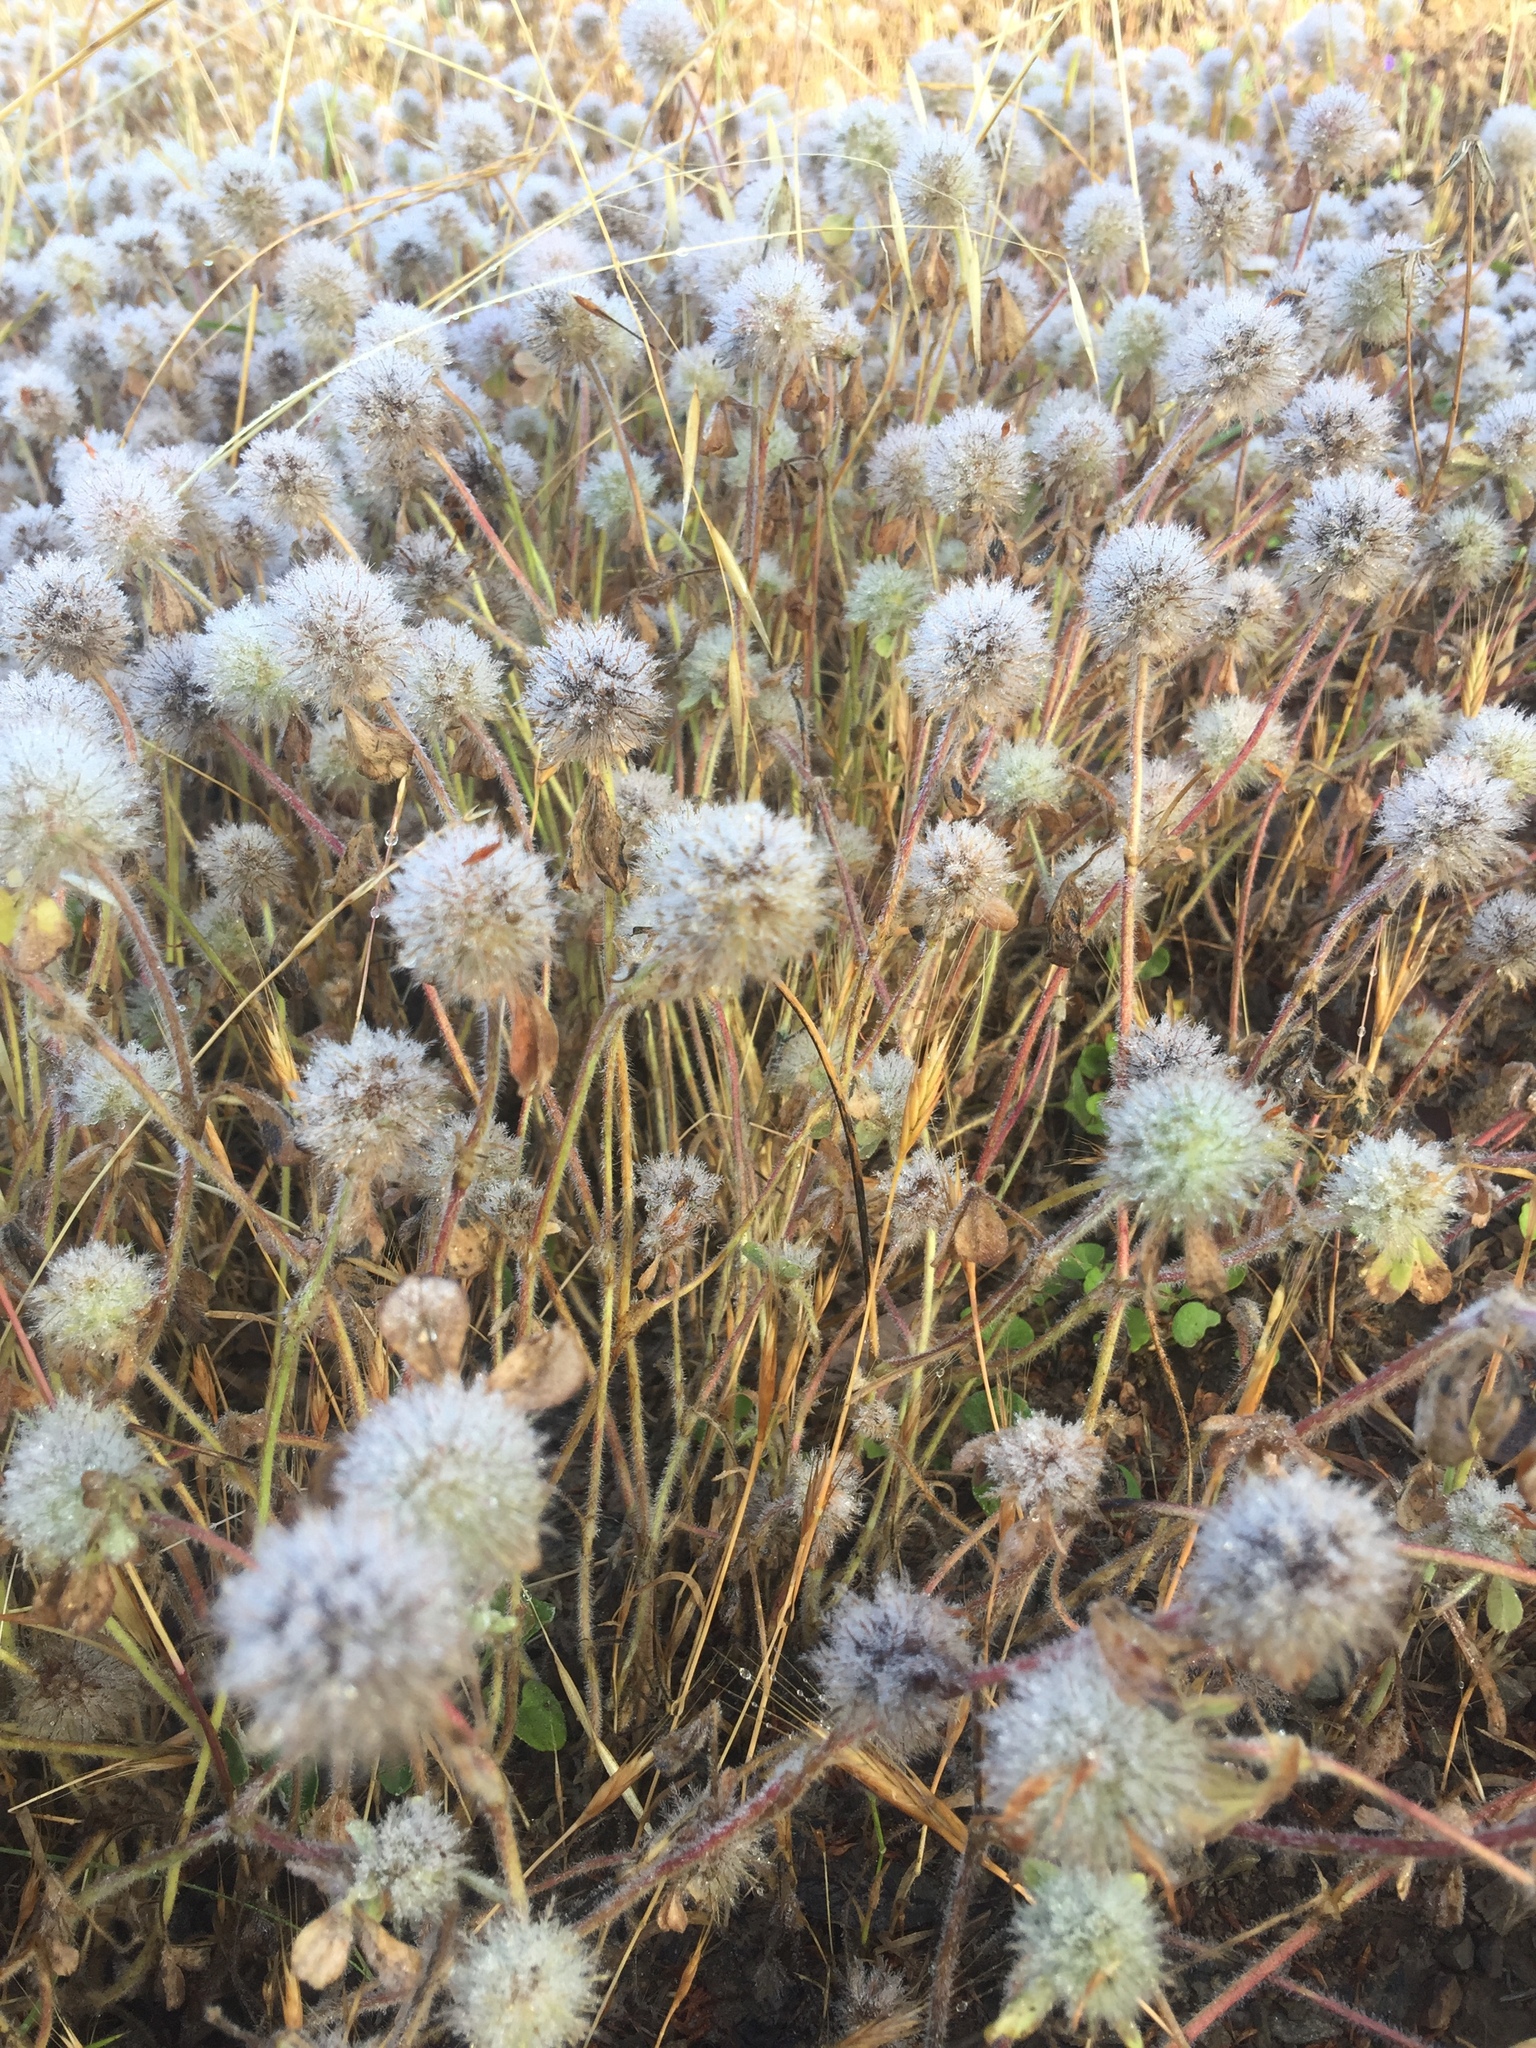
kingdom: Plantae
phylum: Tracheophyta
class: Magnoliopsida
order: Fabales
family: Fabaceae
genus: Trifolium
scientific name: Trifolium hirtum
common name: Rose clover
